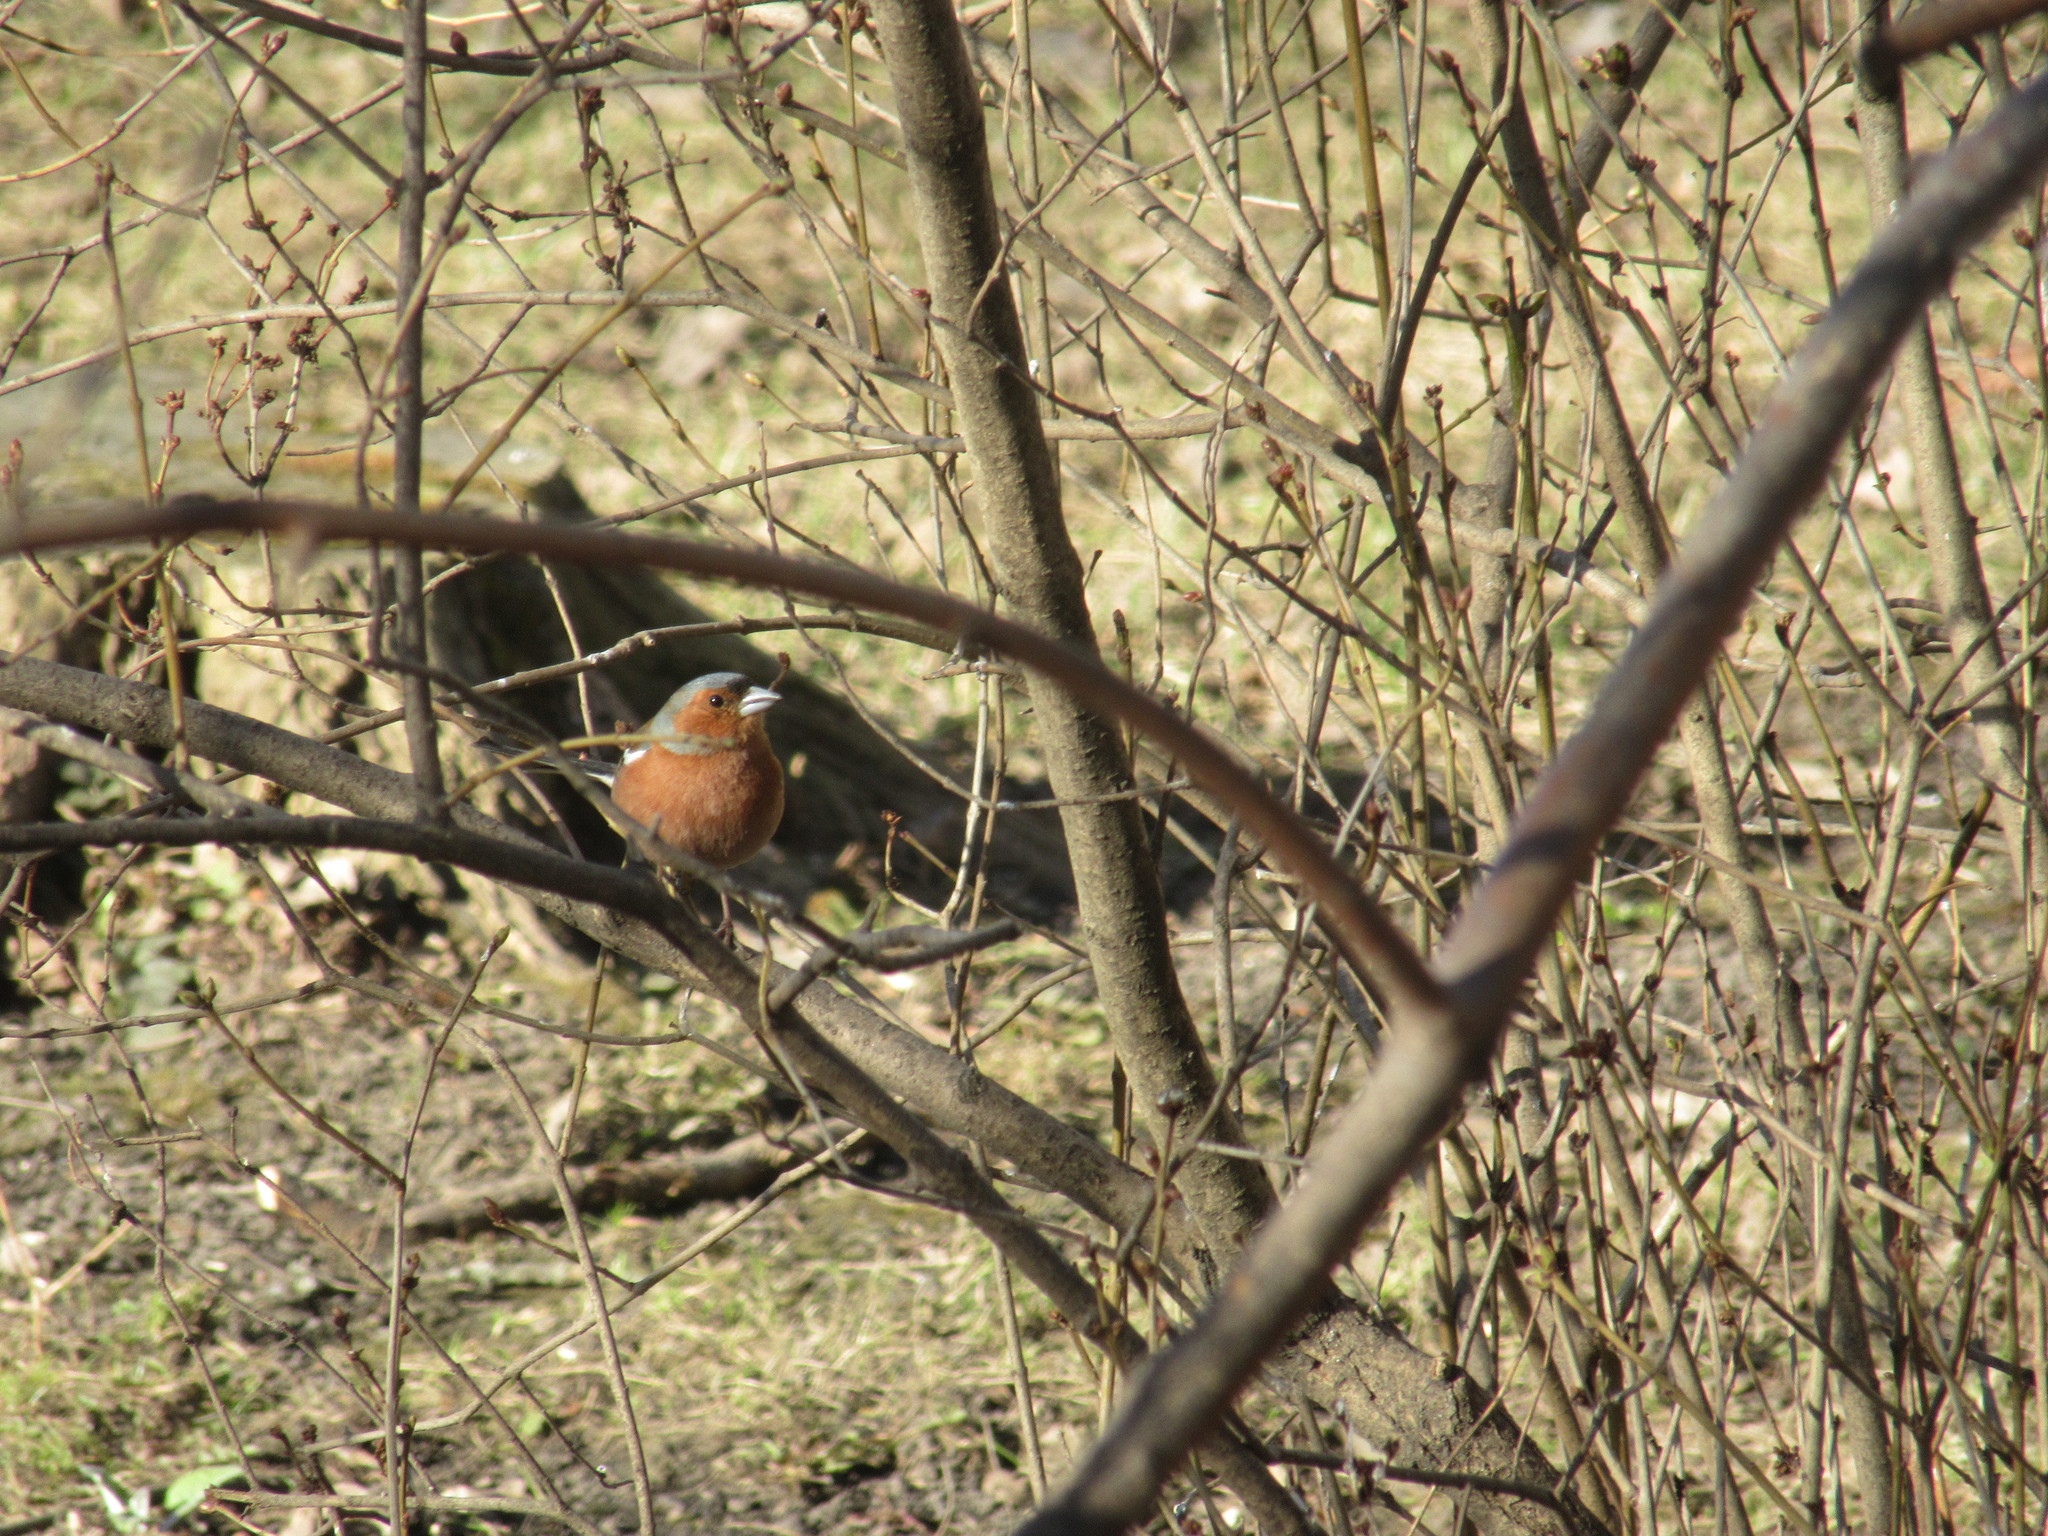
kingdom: Animalia
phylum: Chordata
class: Aves
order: Passeriformes
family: Fringillidae
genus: Fringilla
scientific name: Fringilla coelebs
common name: Common chaffinch
